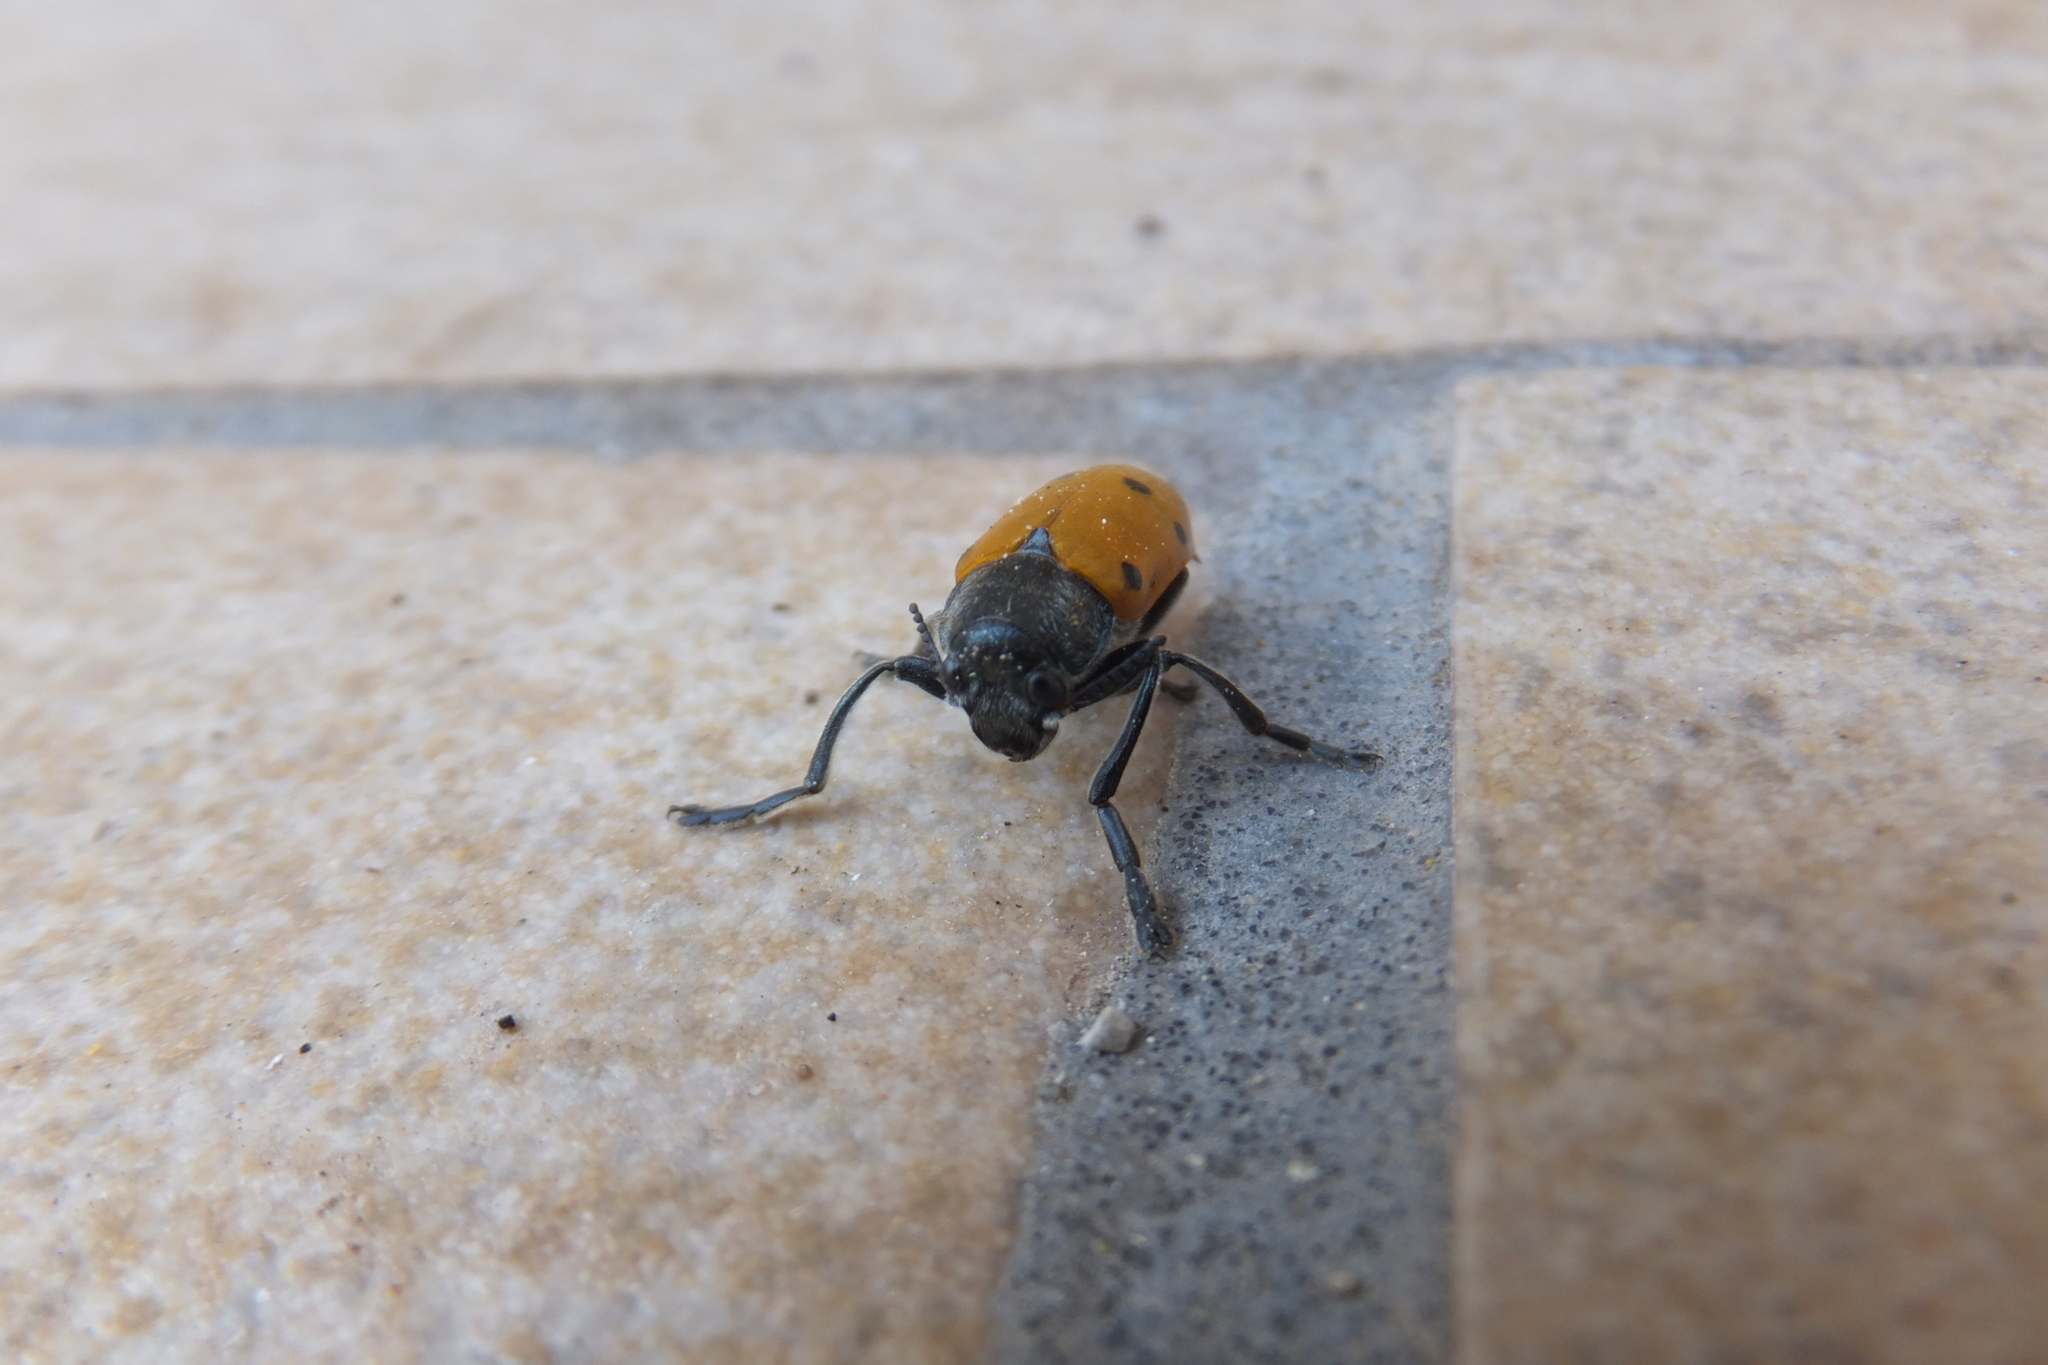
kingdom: Animalia
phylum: Arthropoda
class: Insecta
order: Coleoptera
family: Chrysomelidae
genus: Lachnaia
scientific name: Lachnaia italica
